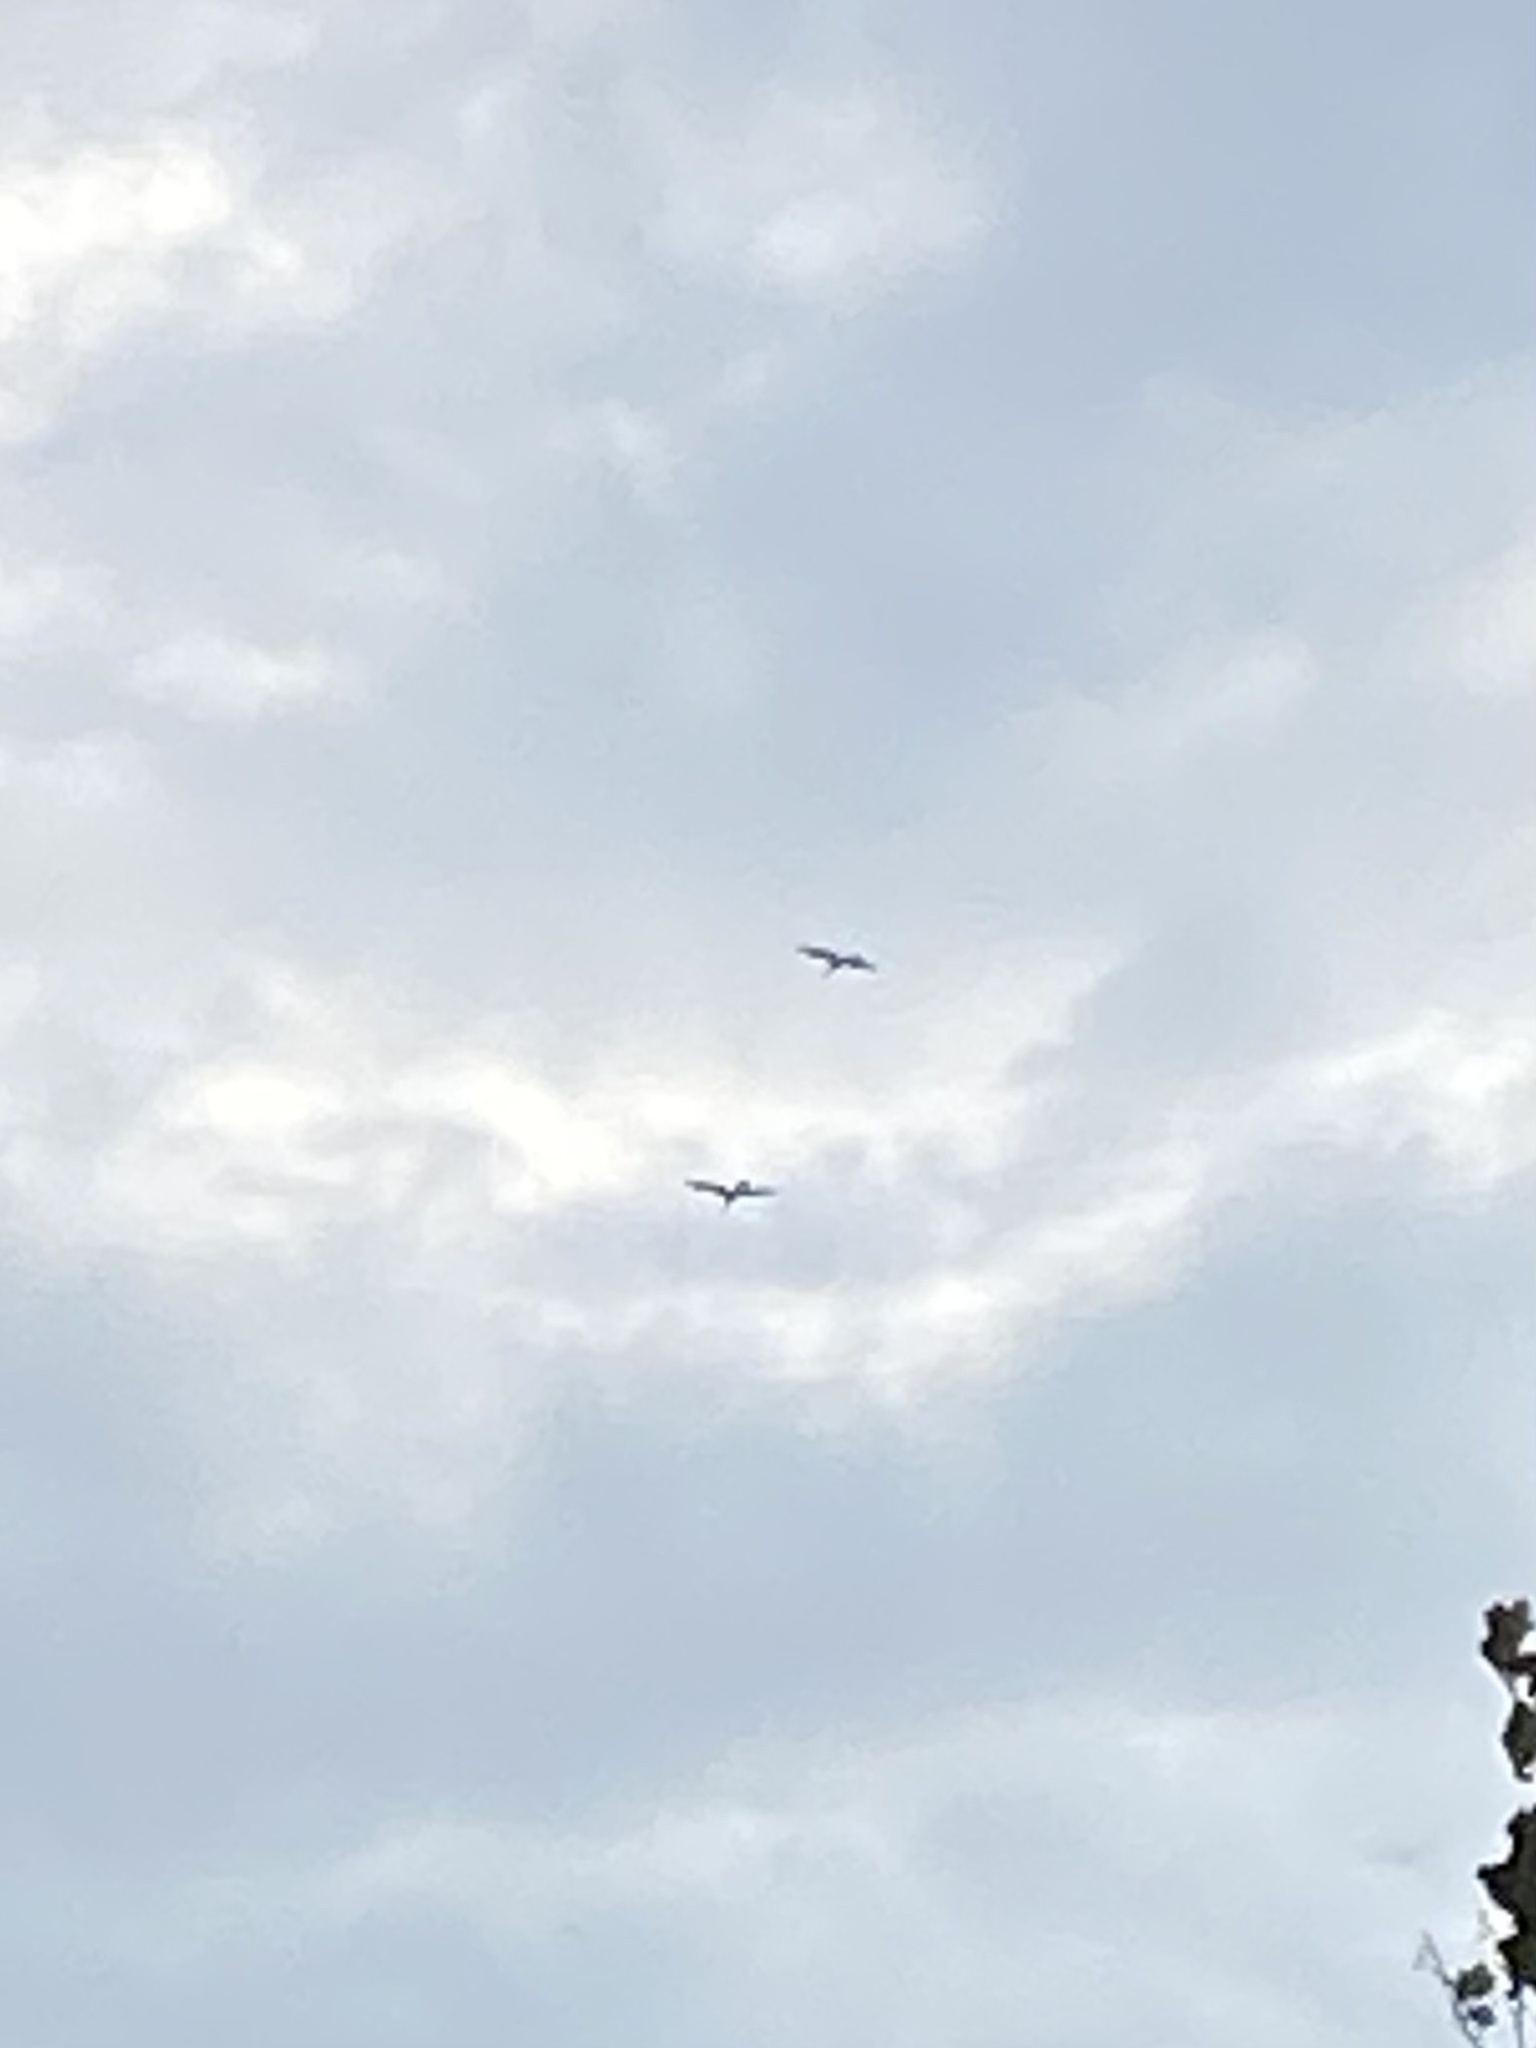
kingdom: Animalia
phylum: Chordata
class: Aves
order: Suliformes
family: Anhingidae
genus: Anhinga
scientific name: Anhinga anhinga
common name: Anhinga
